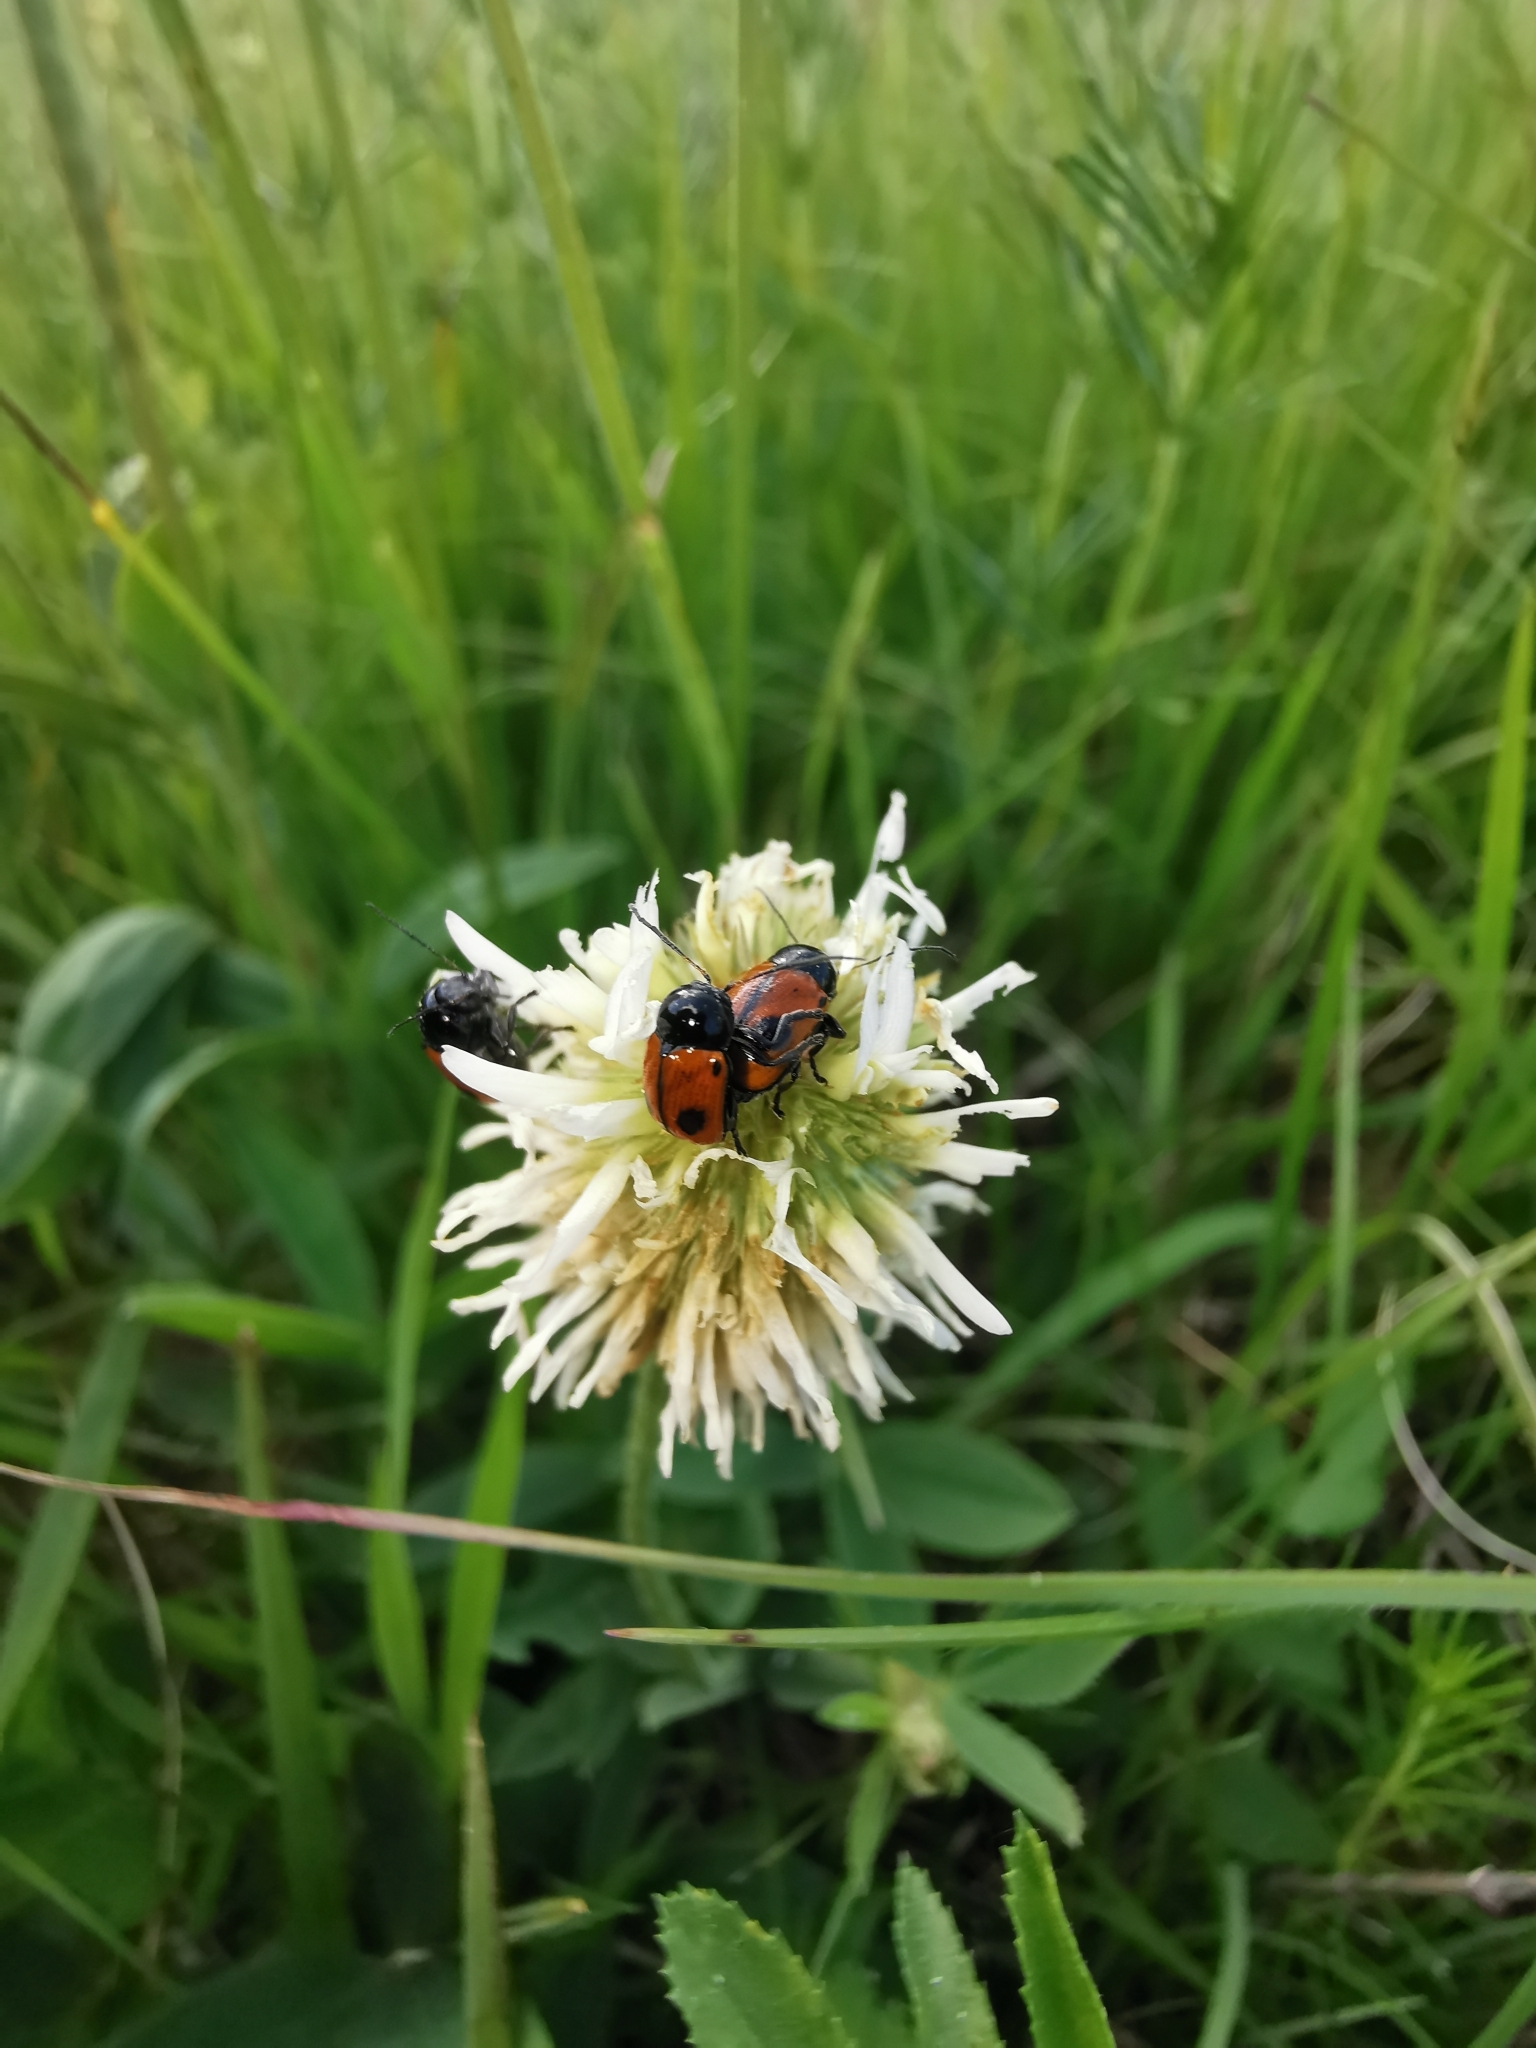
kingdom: Animalia
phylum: Arthropoda
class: Insecta
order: Coleoptera
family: Chrysomelidae
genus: Chiridopsis
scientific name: Chiridopsis bipunctata
